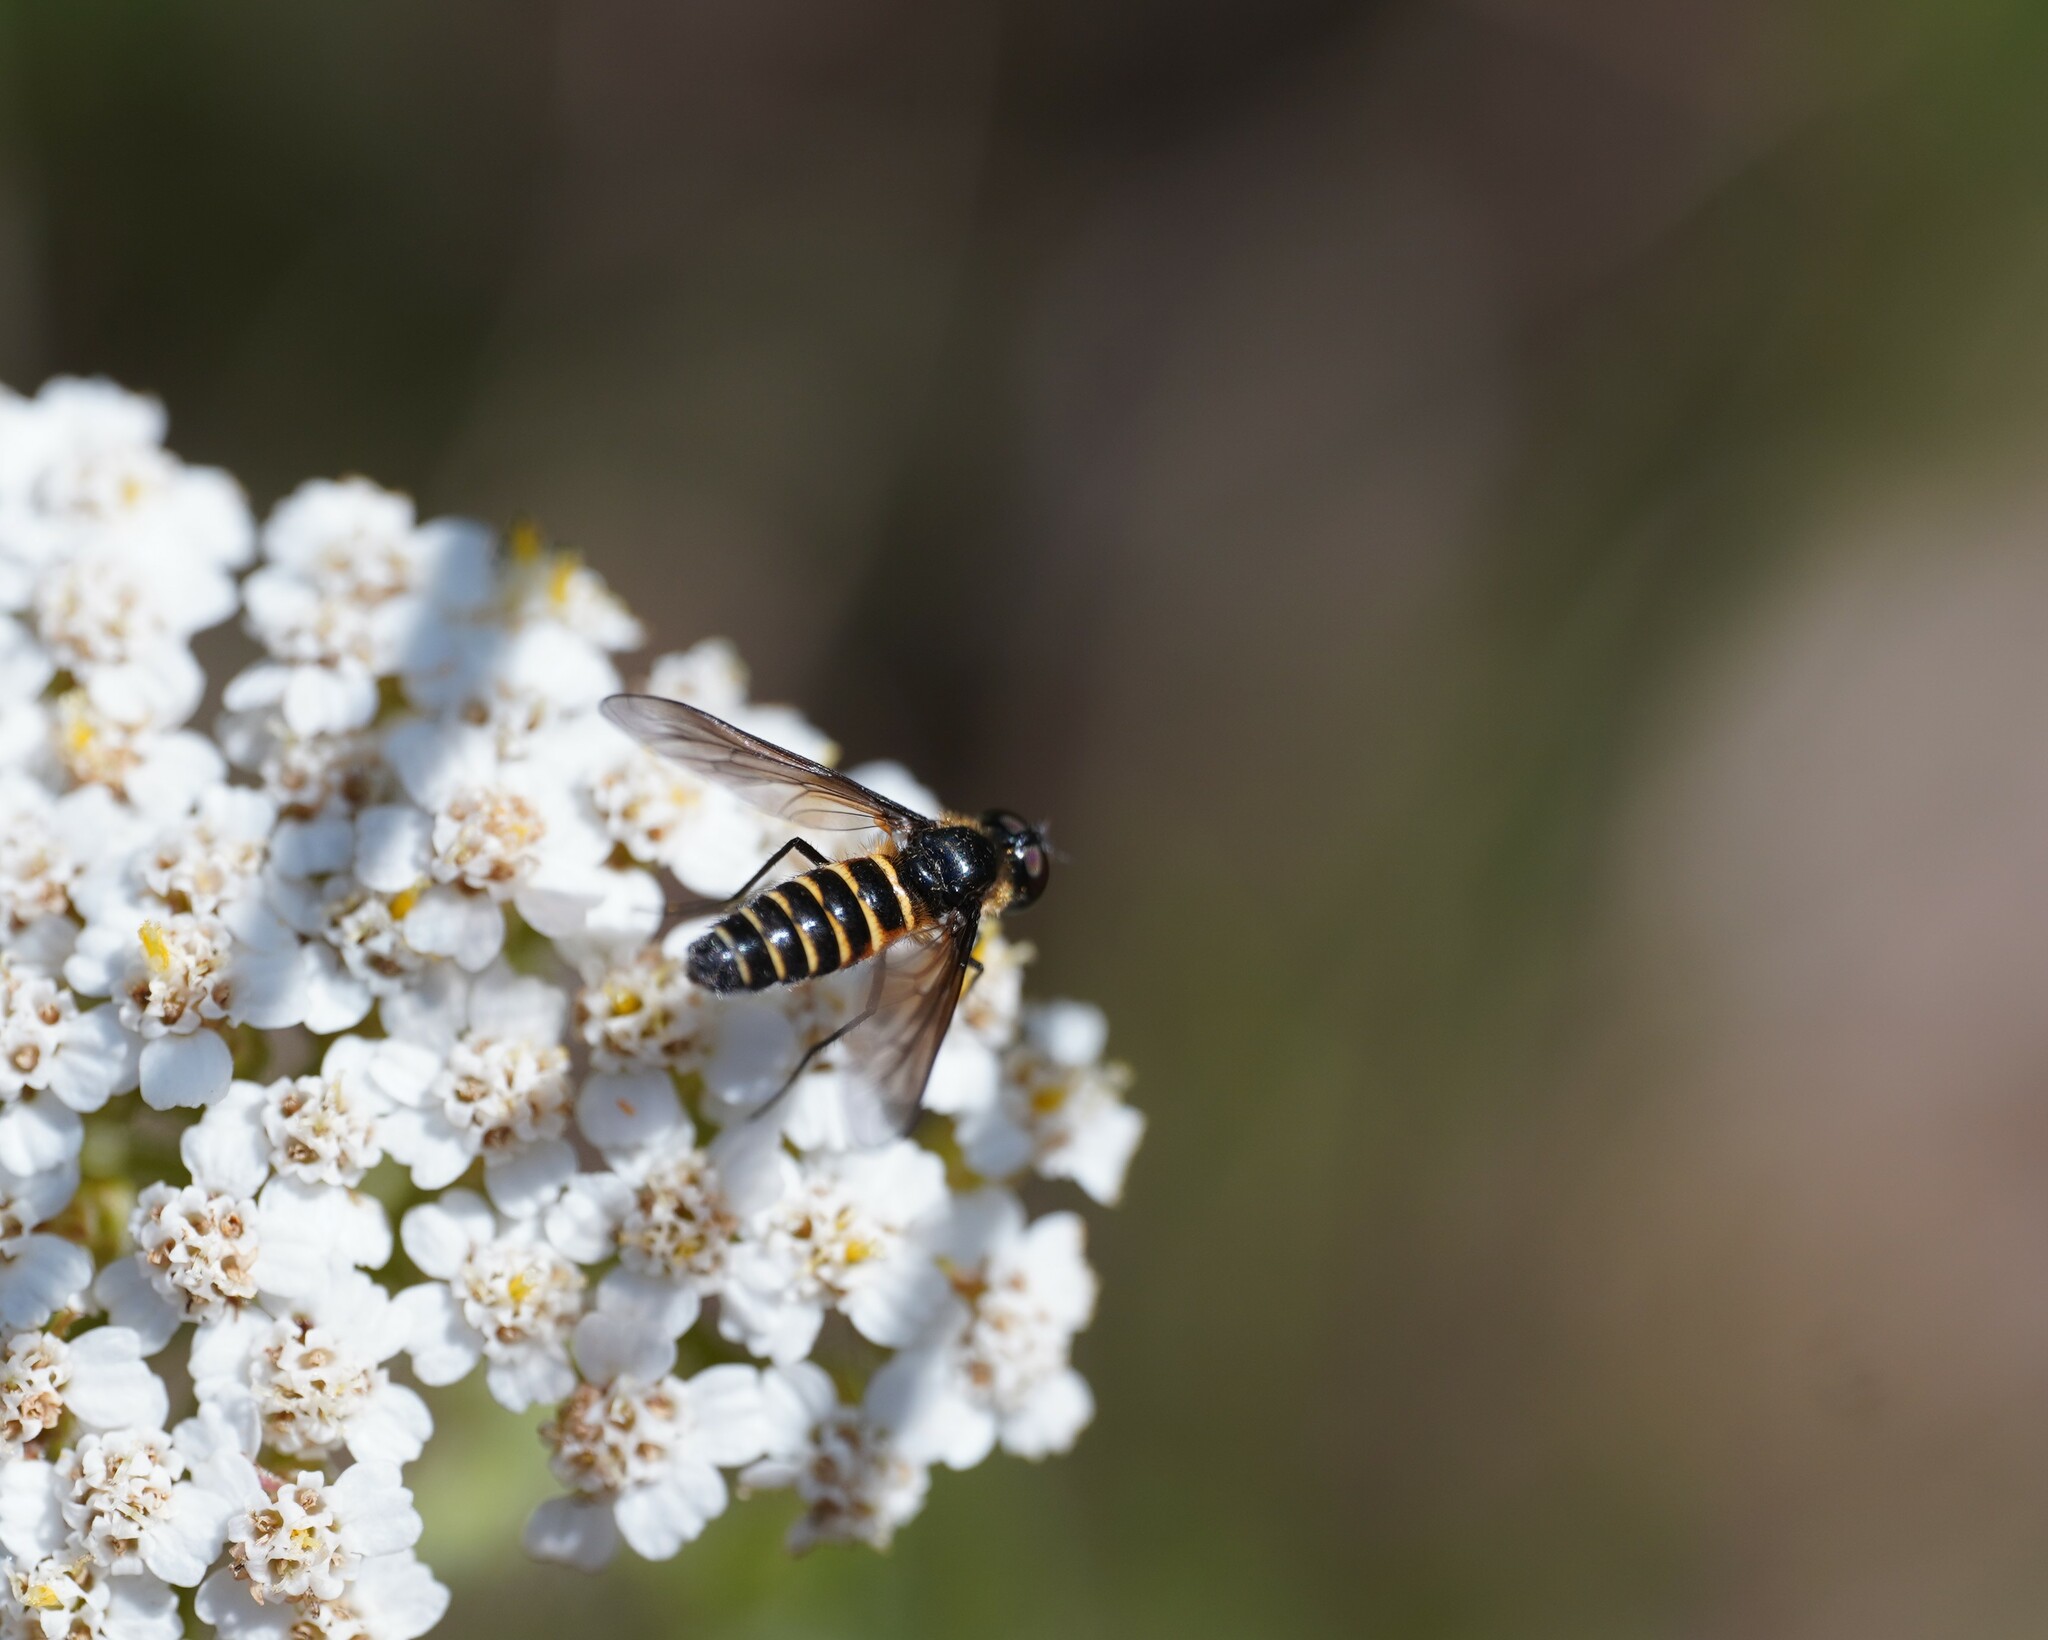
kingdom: Animalia
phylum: Arthropoda
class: Insecta
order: Diptera
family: Bombyliidae
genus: Lomatia
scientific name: Lomatia lateralis
